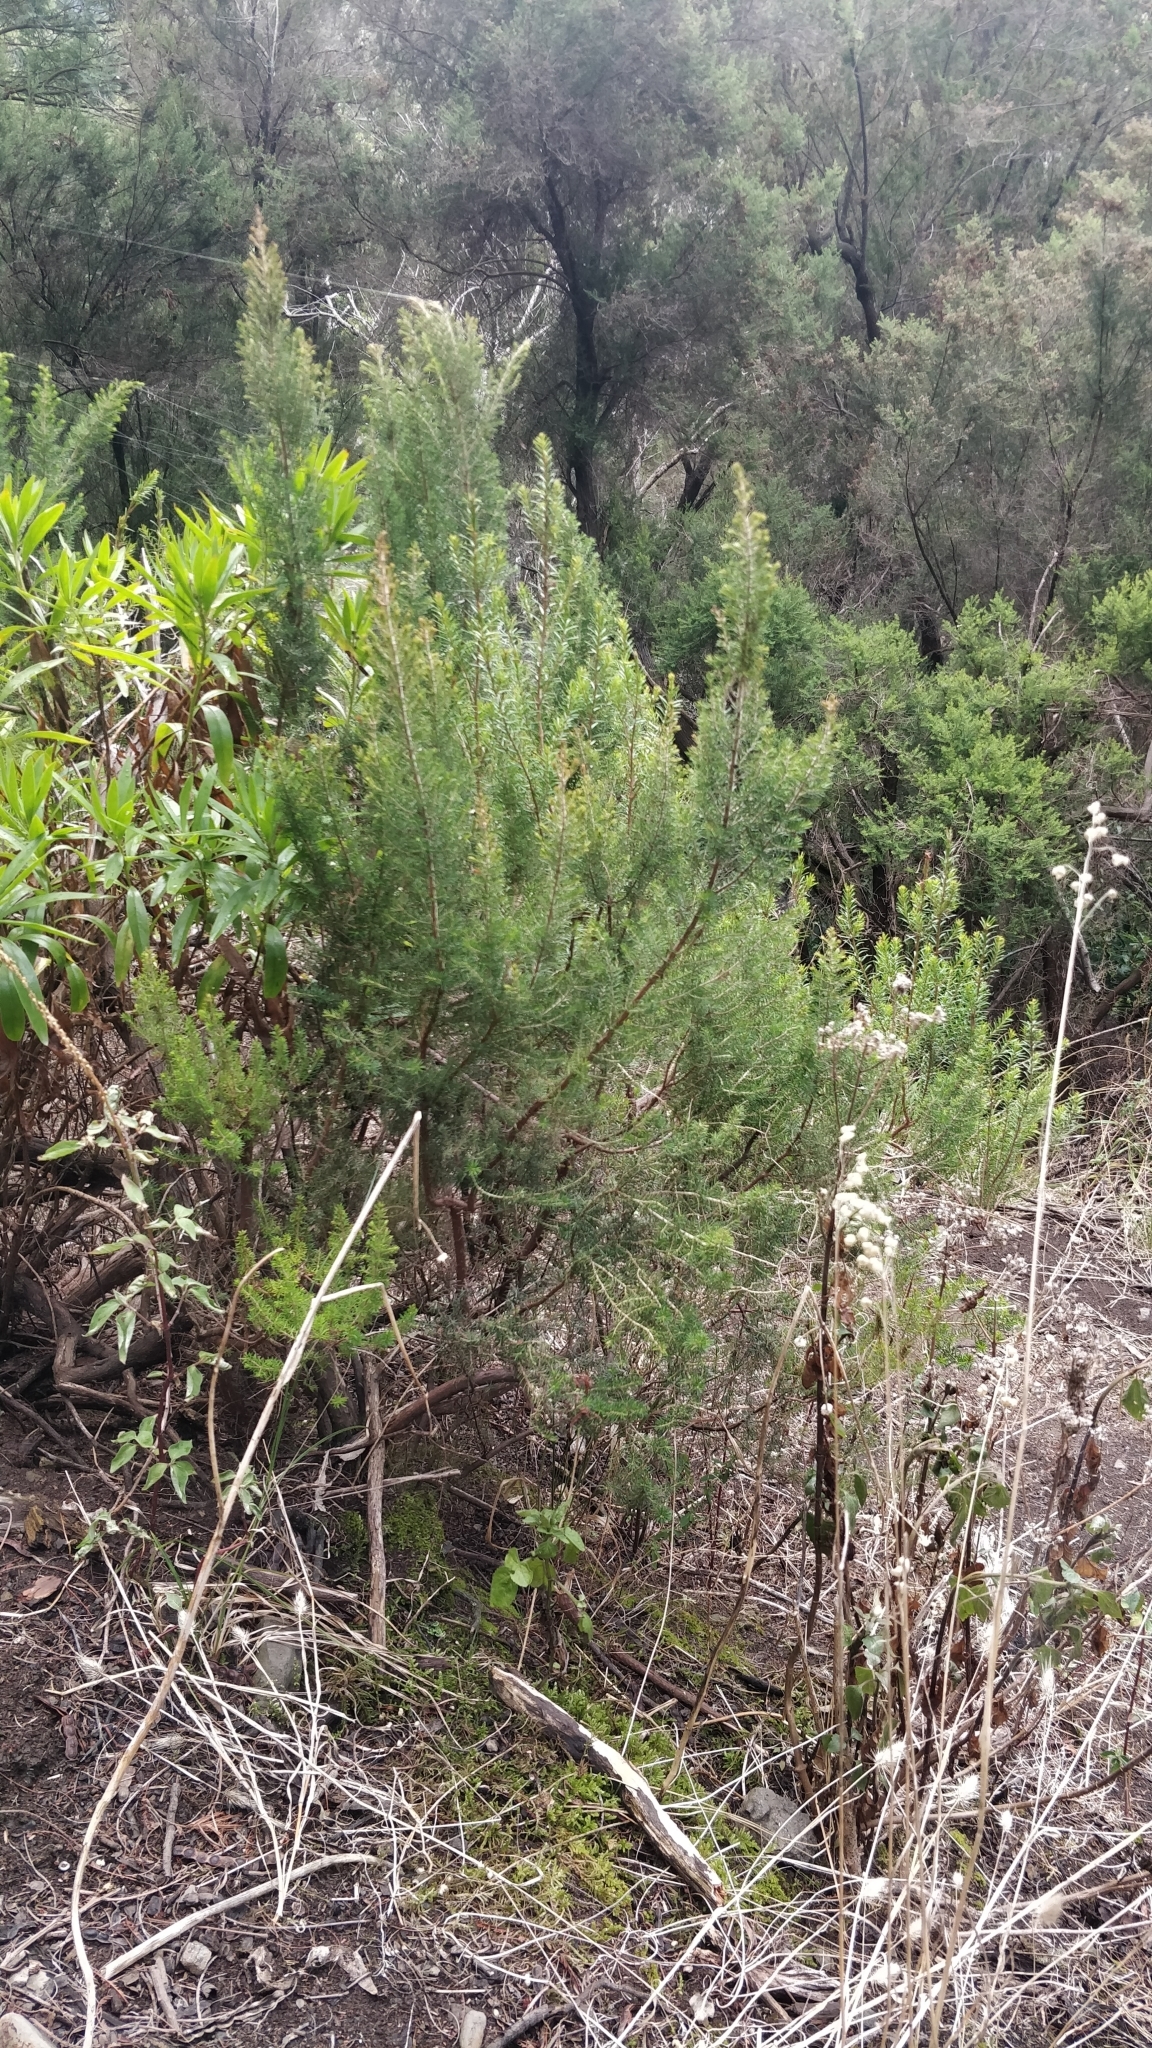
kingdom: Plantae
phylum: Tracheophyta
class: Magnoliopsida
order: Ericales
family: Ericaceae
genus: Erica
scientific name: Erica canariensis
